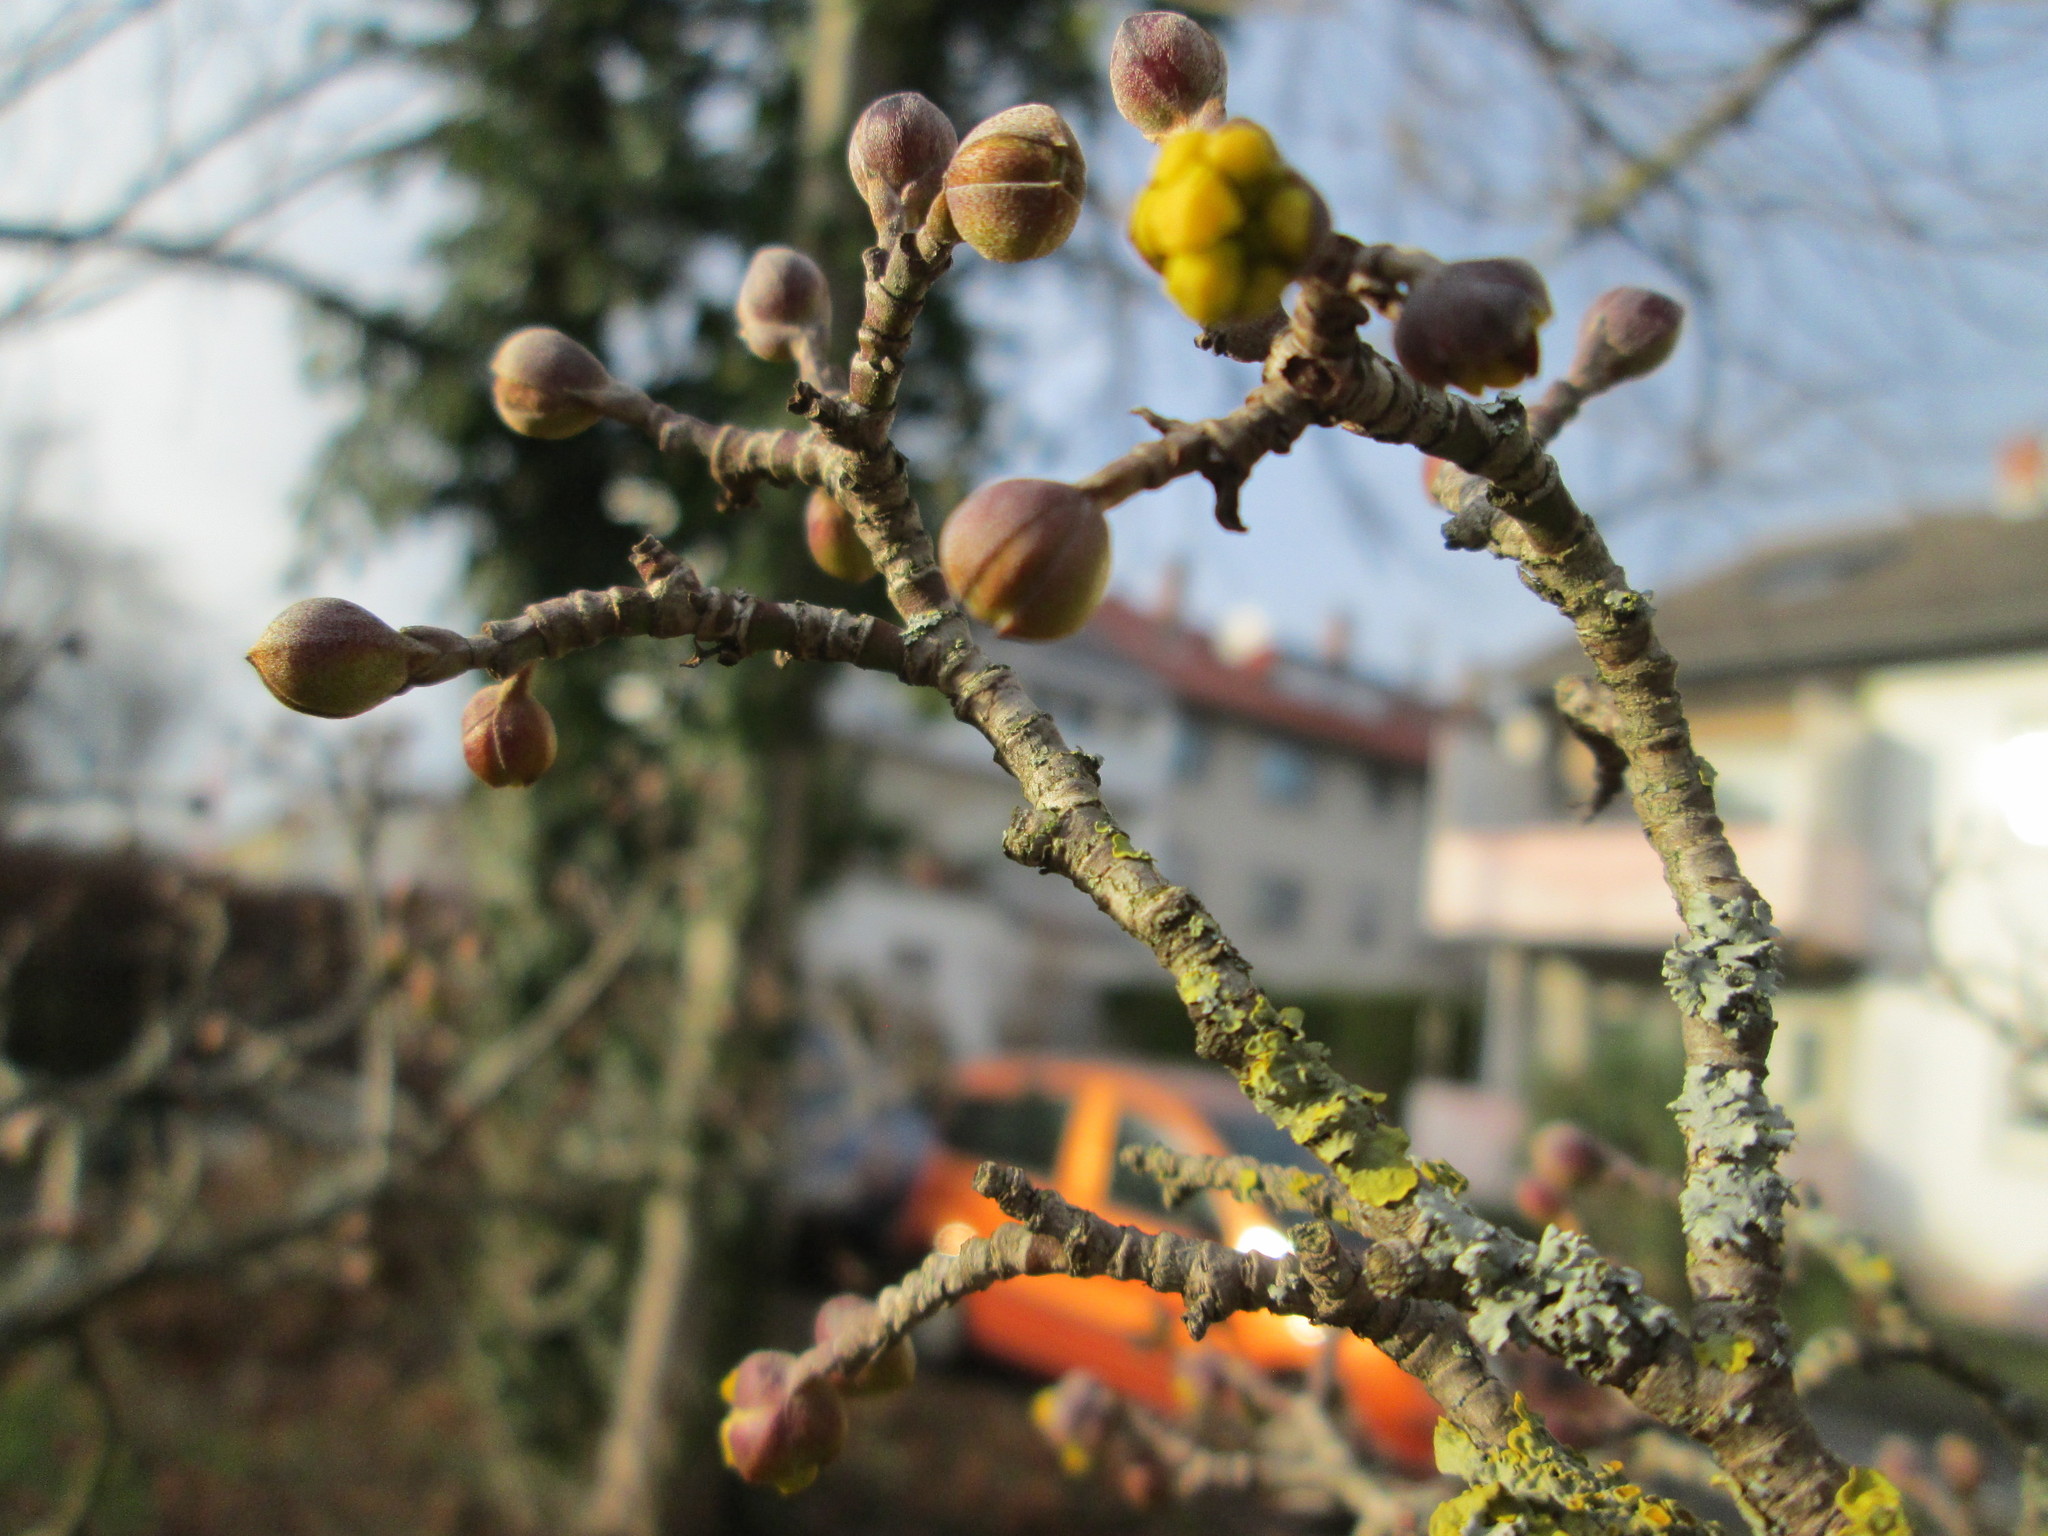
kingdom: Plantae
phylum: Tracheophyta
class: Magnoliopsida
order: Cornales
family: Cornaceae
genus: Cornus
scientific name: Cornus mas
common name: Cornelian-cherry
